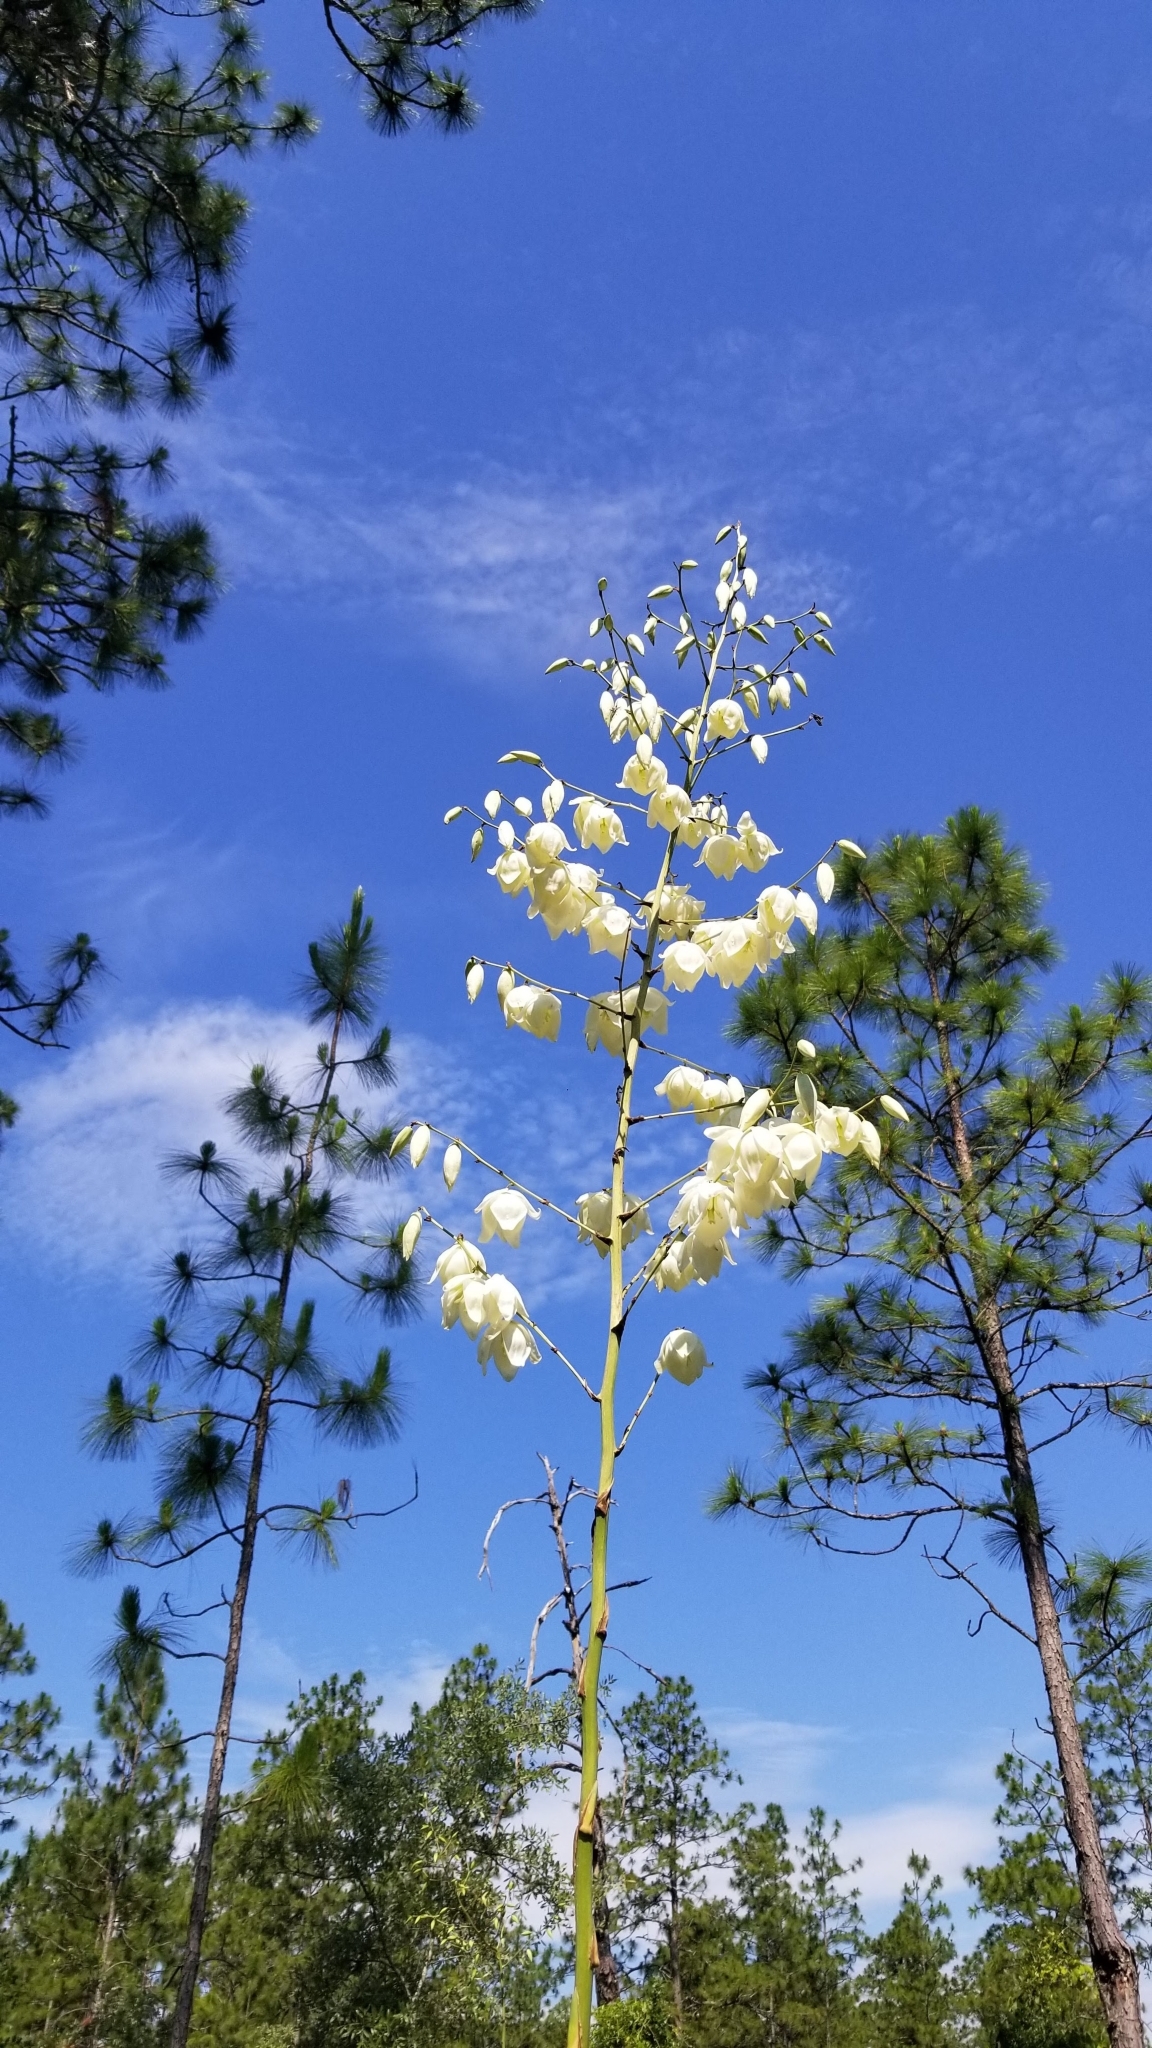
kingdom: Plantae
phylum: Tracheophyta
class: Liliopsida
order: Asparagales
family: Asparagaceae
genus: Yucca
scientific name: Yucca filamentosa
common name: Adam's-needle
